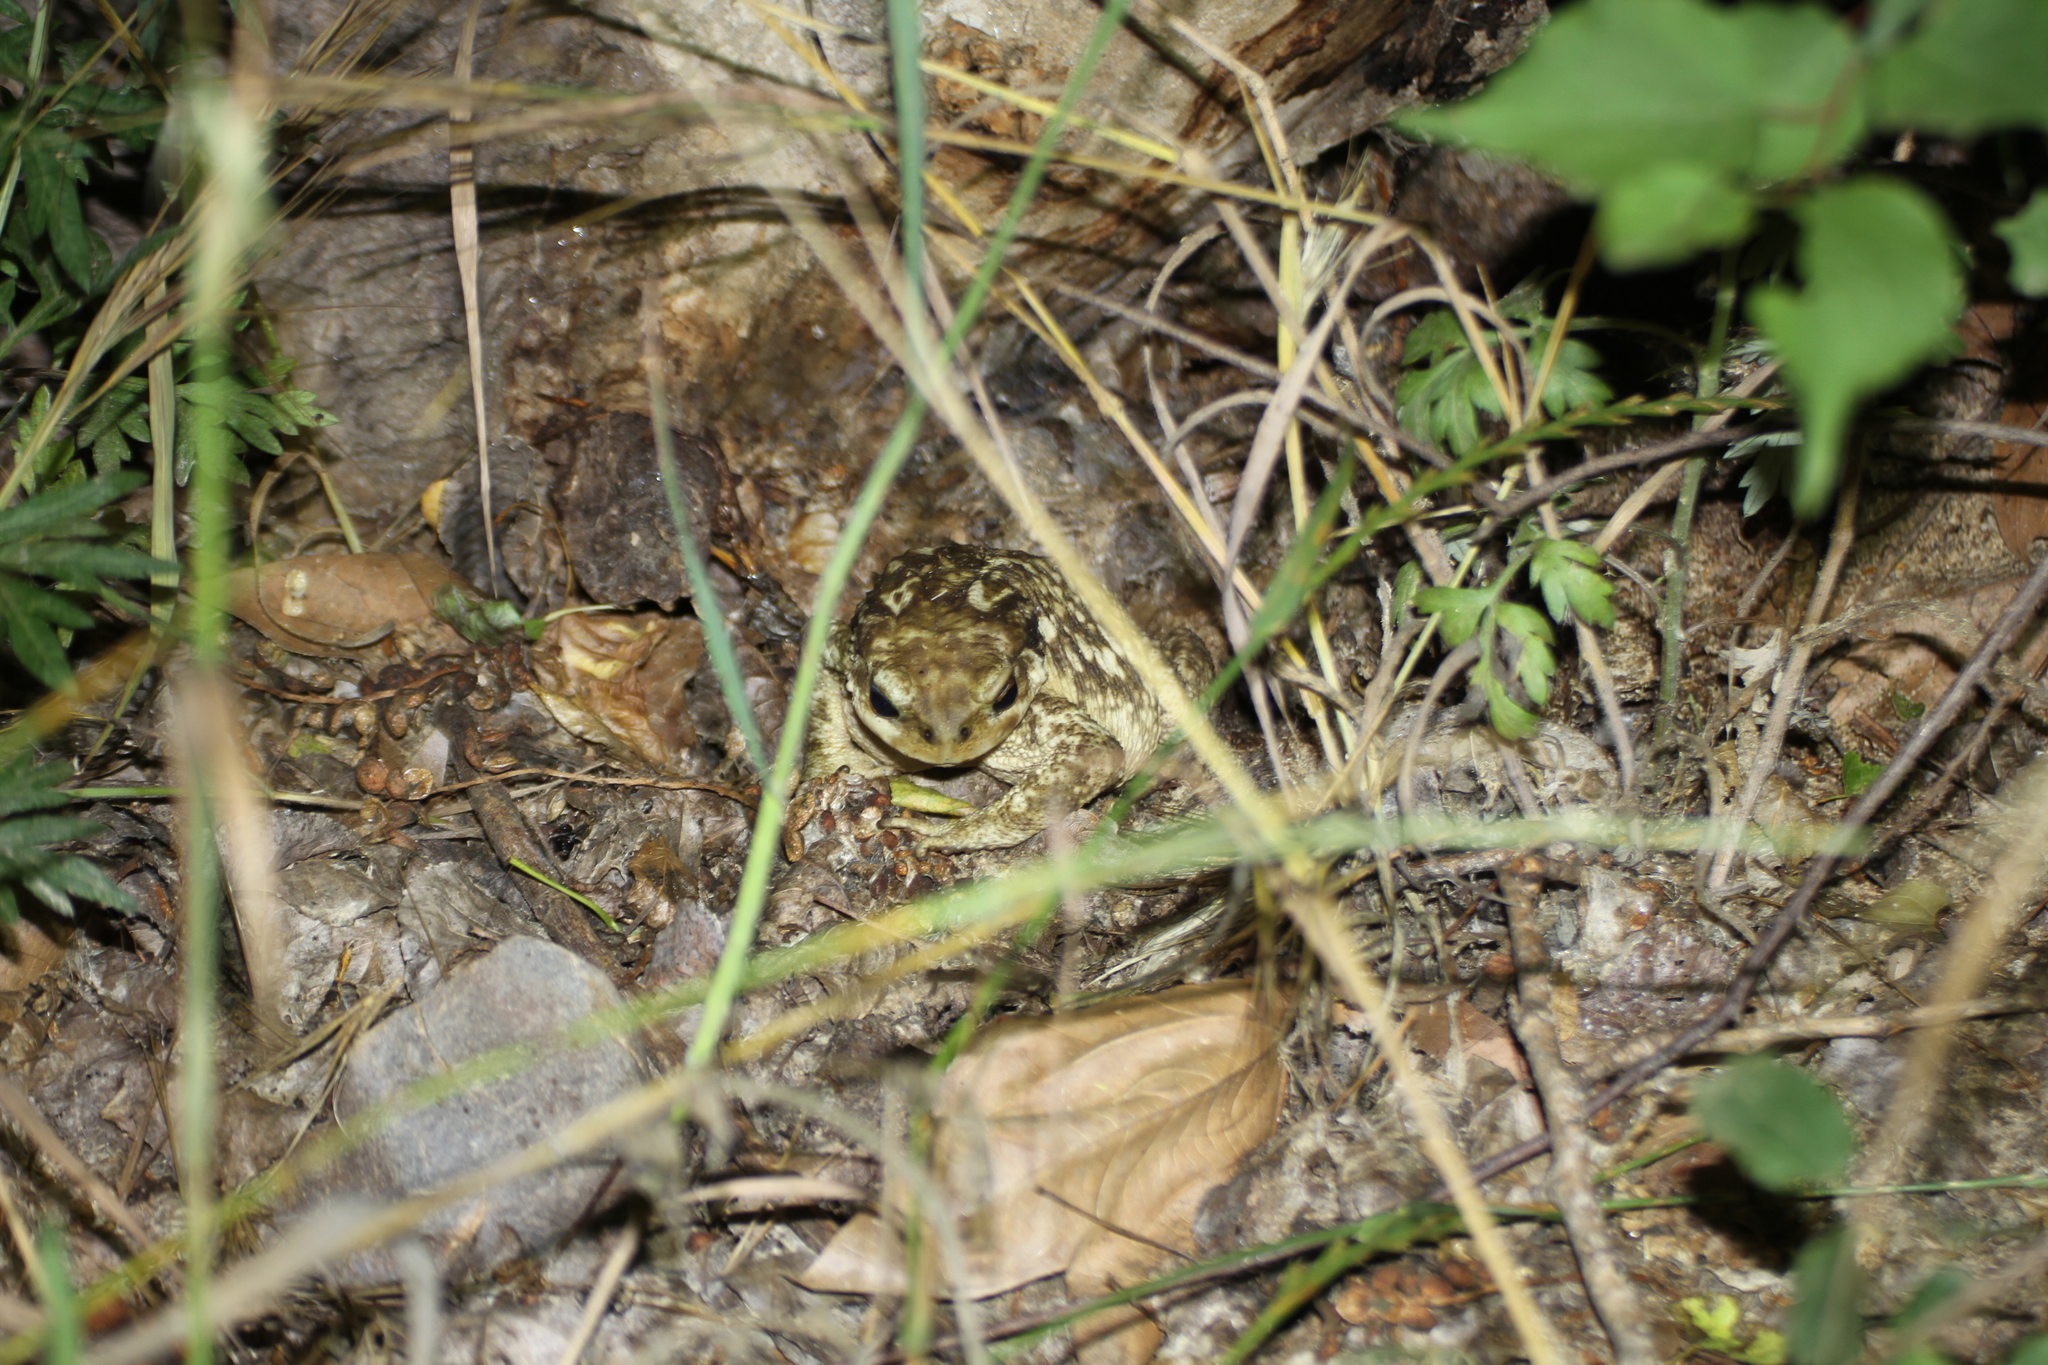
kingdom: Animalia
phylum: Chordata
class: Amphibia
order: Anura
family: Bufonidae
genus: Bufo
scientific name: Bufo spinosus
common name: Western common toad
